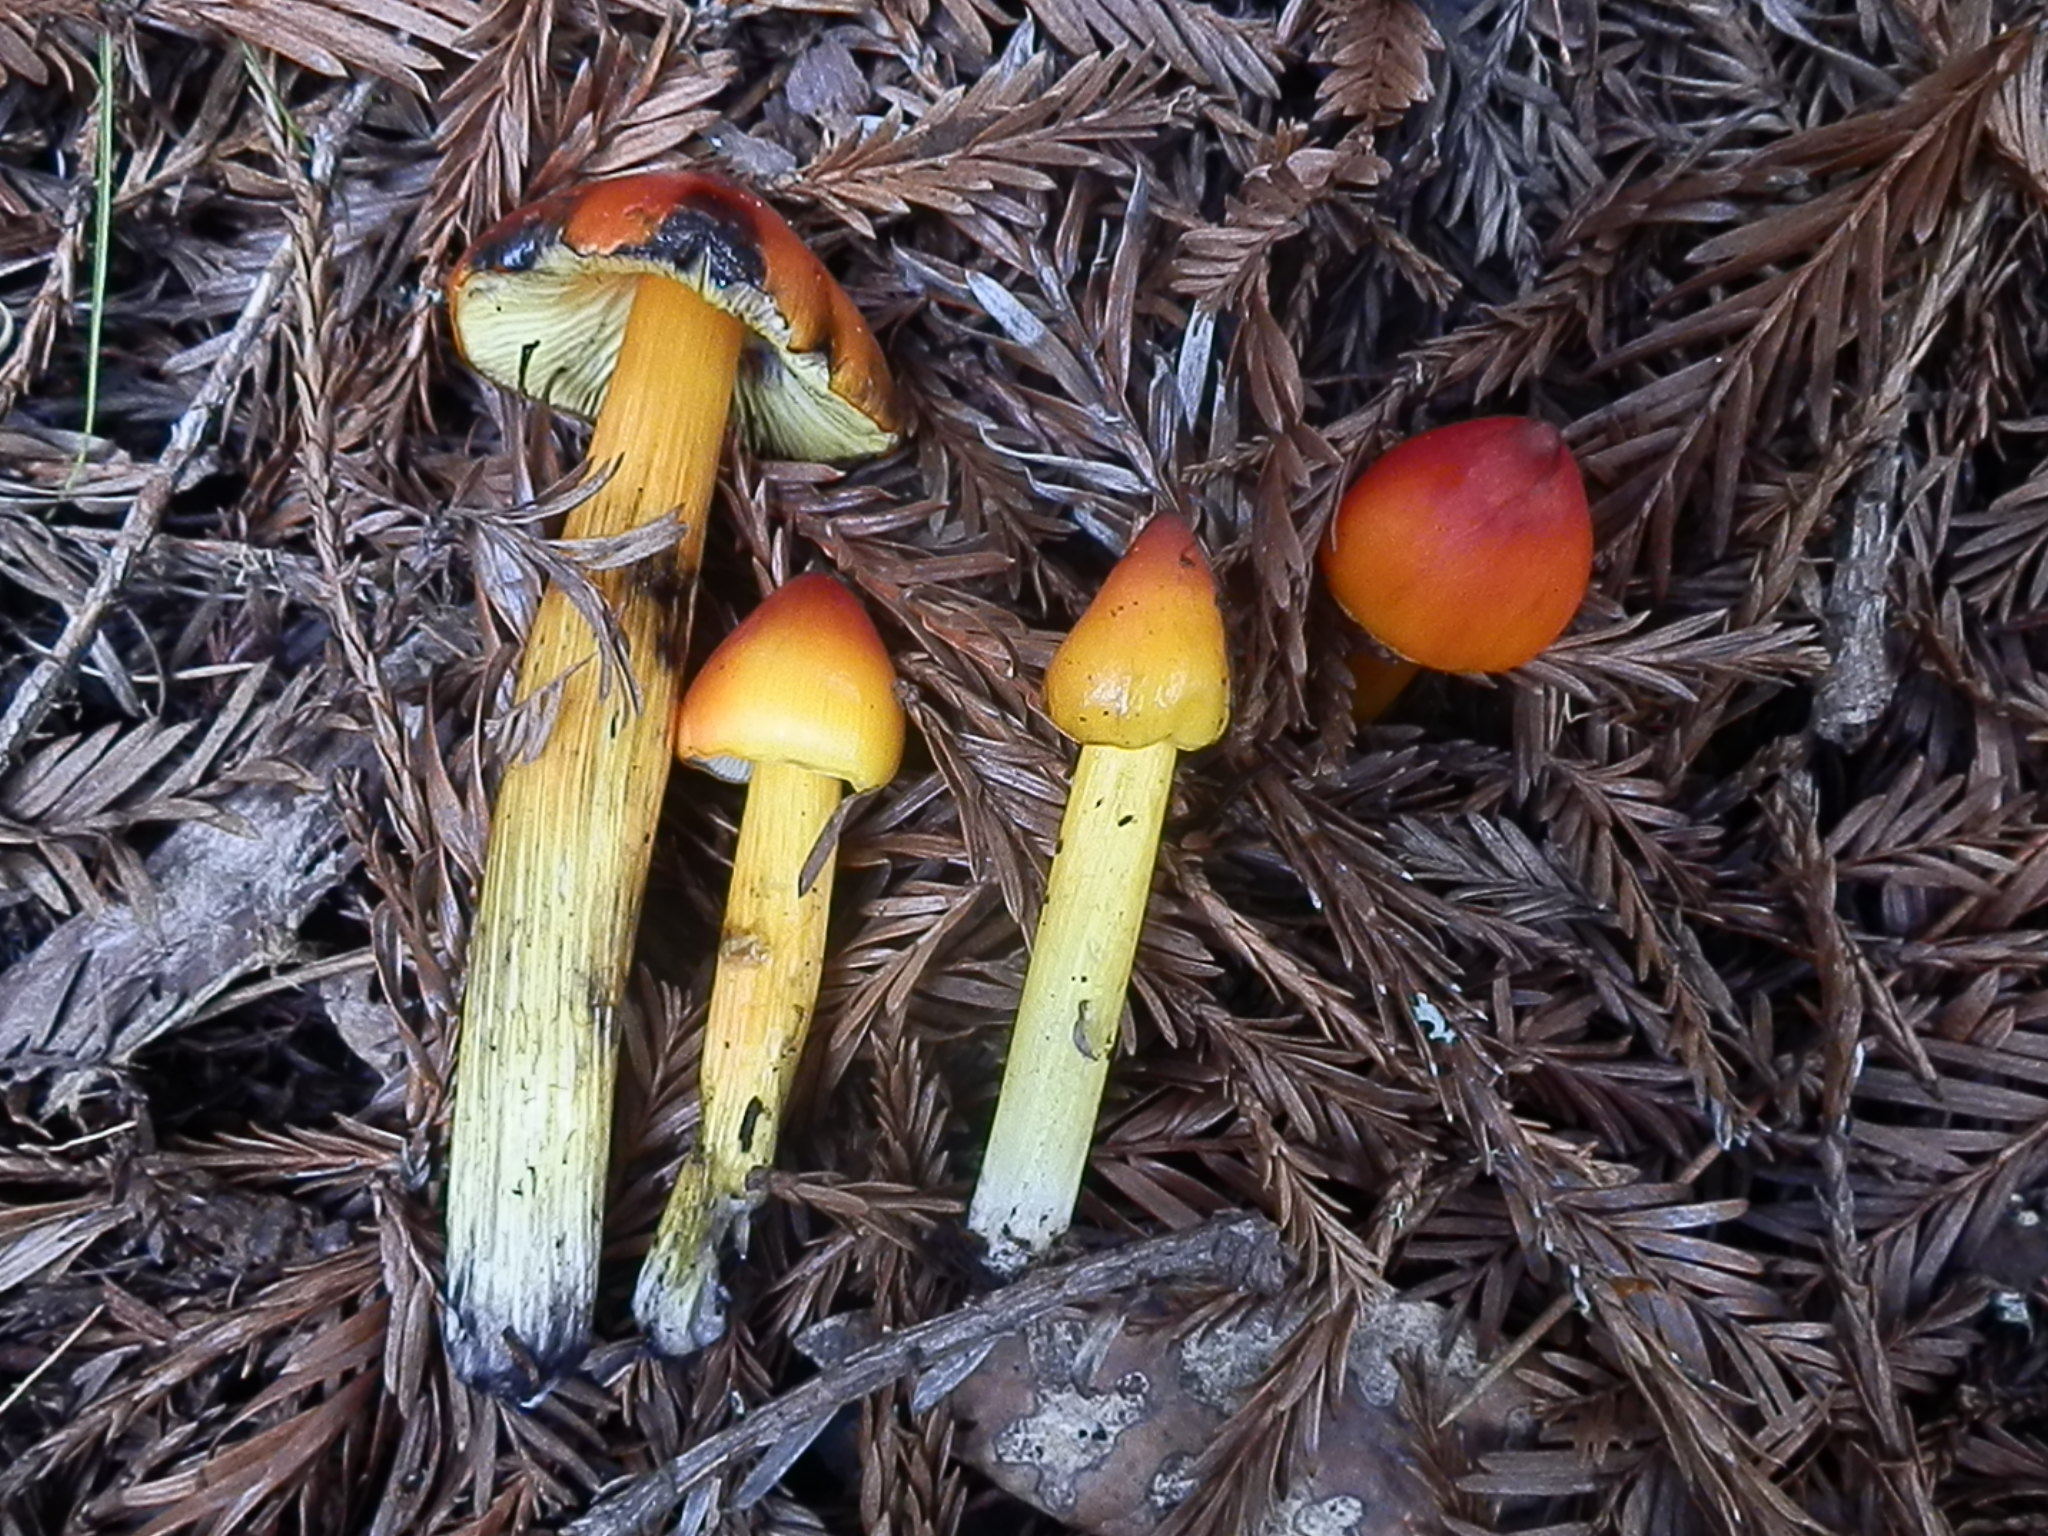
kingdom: Fungi
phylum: Basidiomycota
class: Agaricomycetes
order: Agaricales
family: Hygrophoraceae
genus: Hygrocybe
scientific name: Hygrocybe singeri
